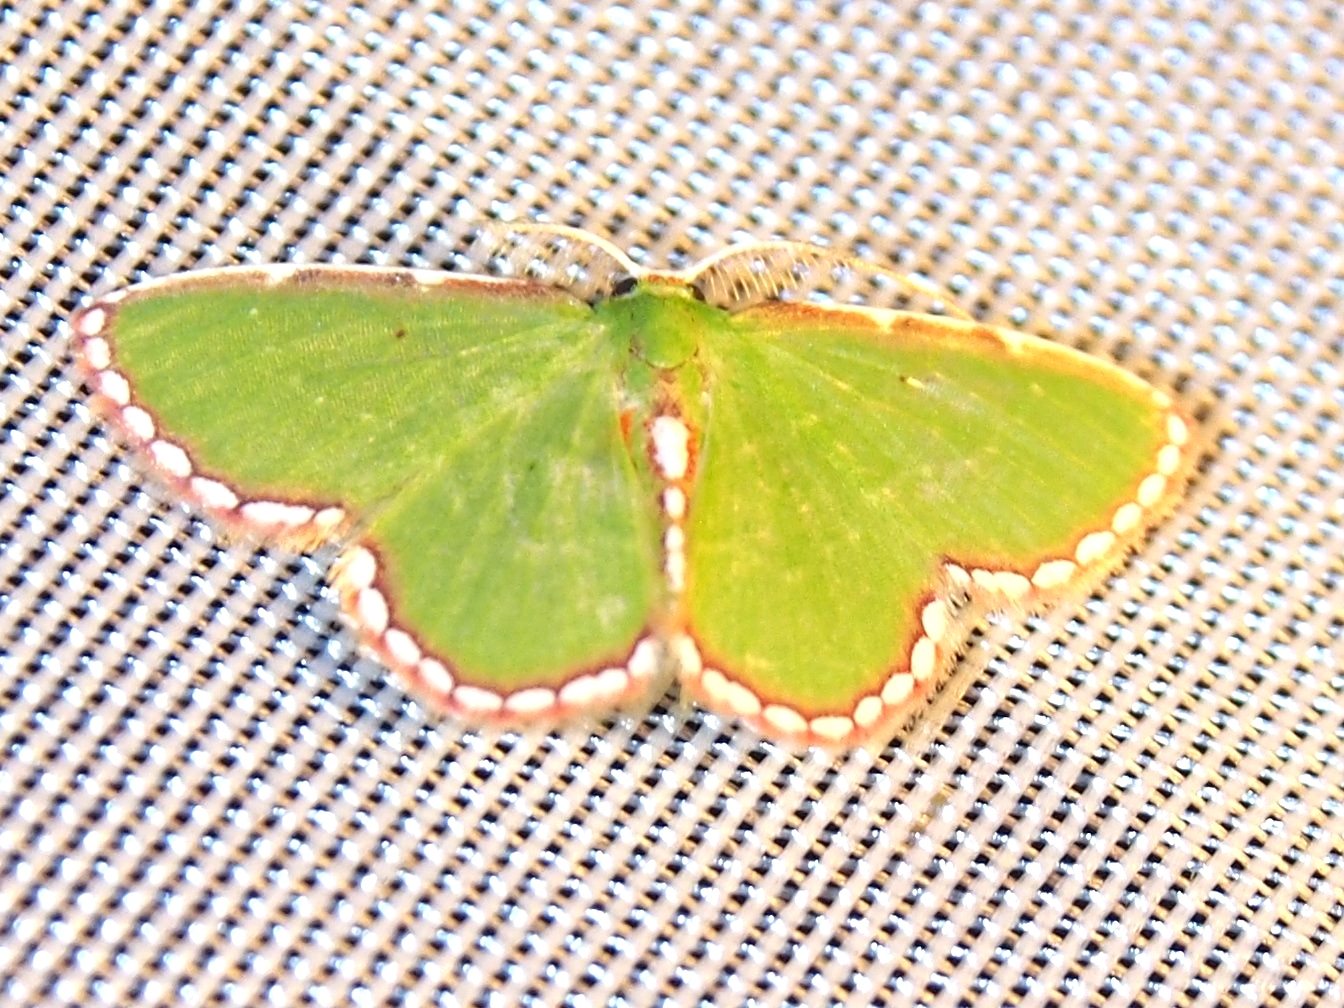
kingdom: Animalia
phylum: Arthropoda
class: Insecta
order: Lepidoptera
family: Geometridae
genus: Synchlora
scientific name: Synchlora pulchrifimbria
